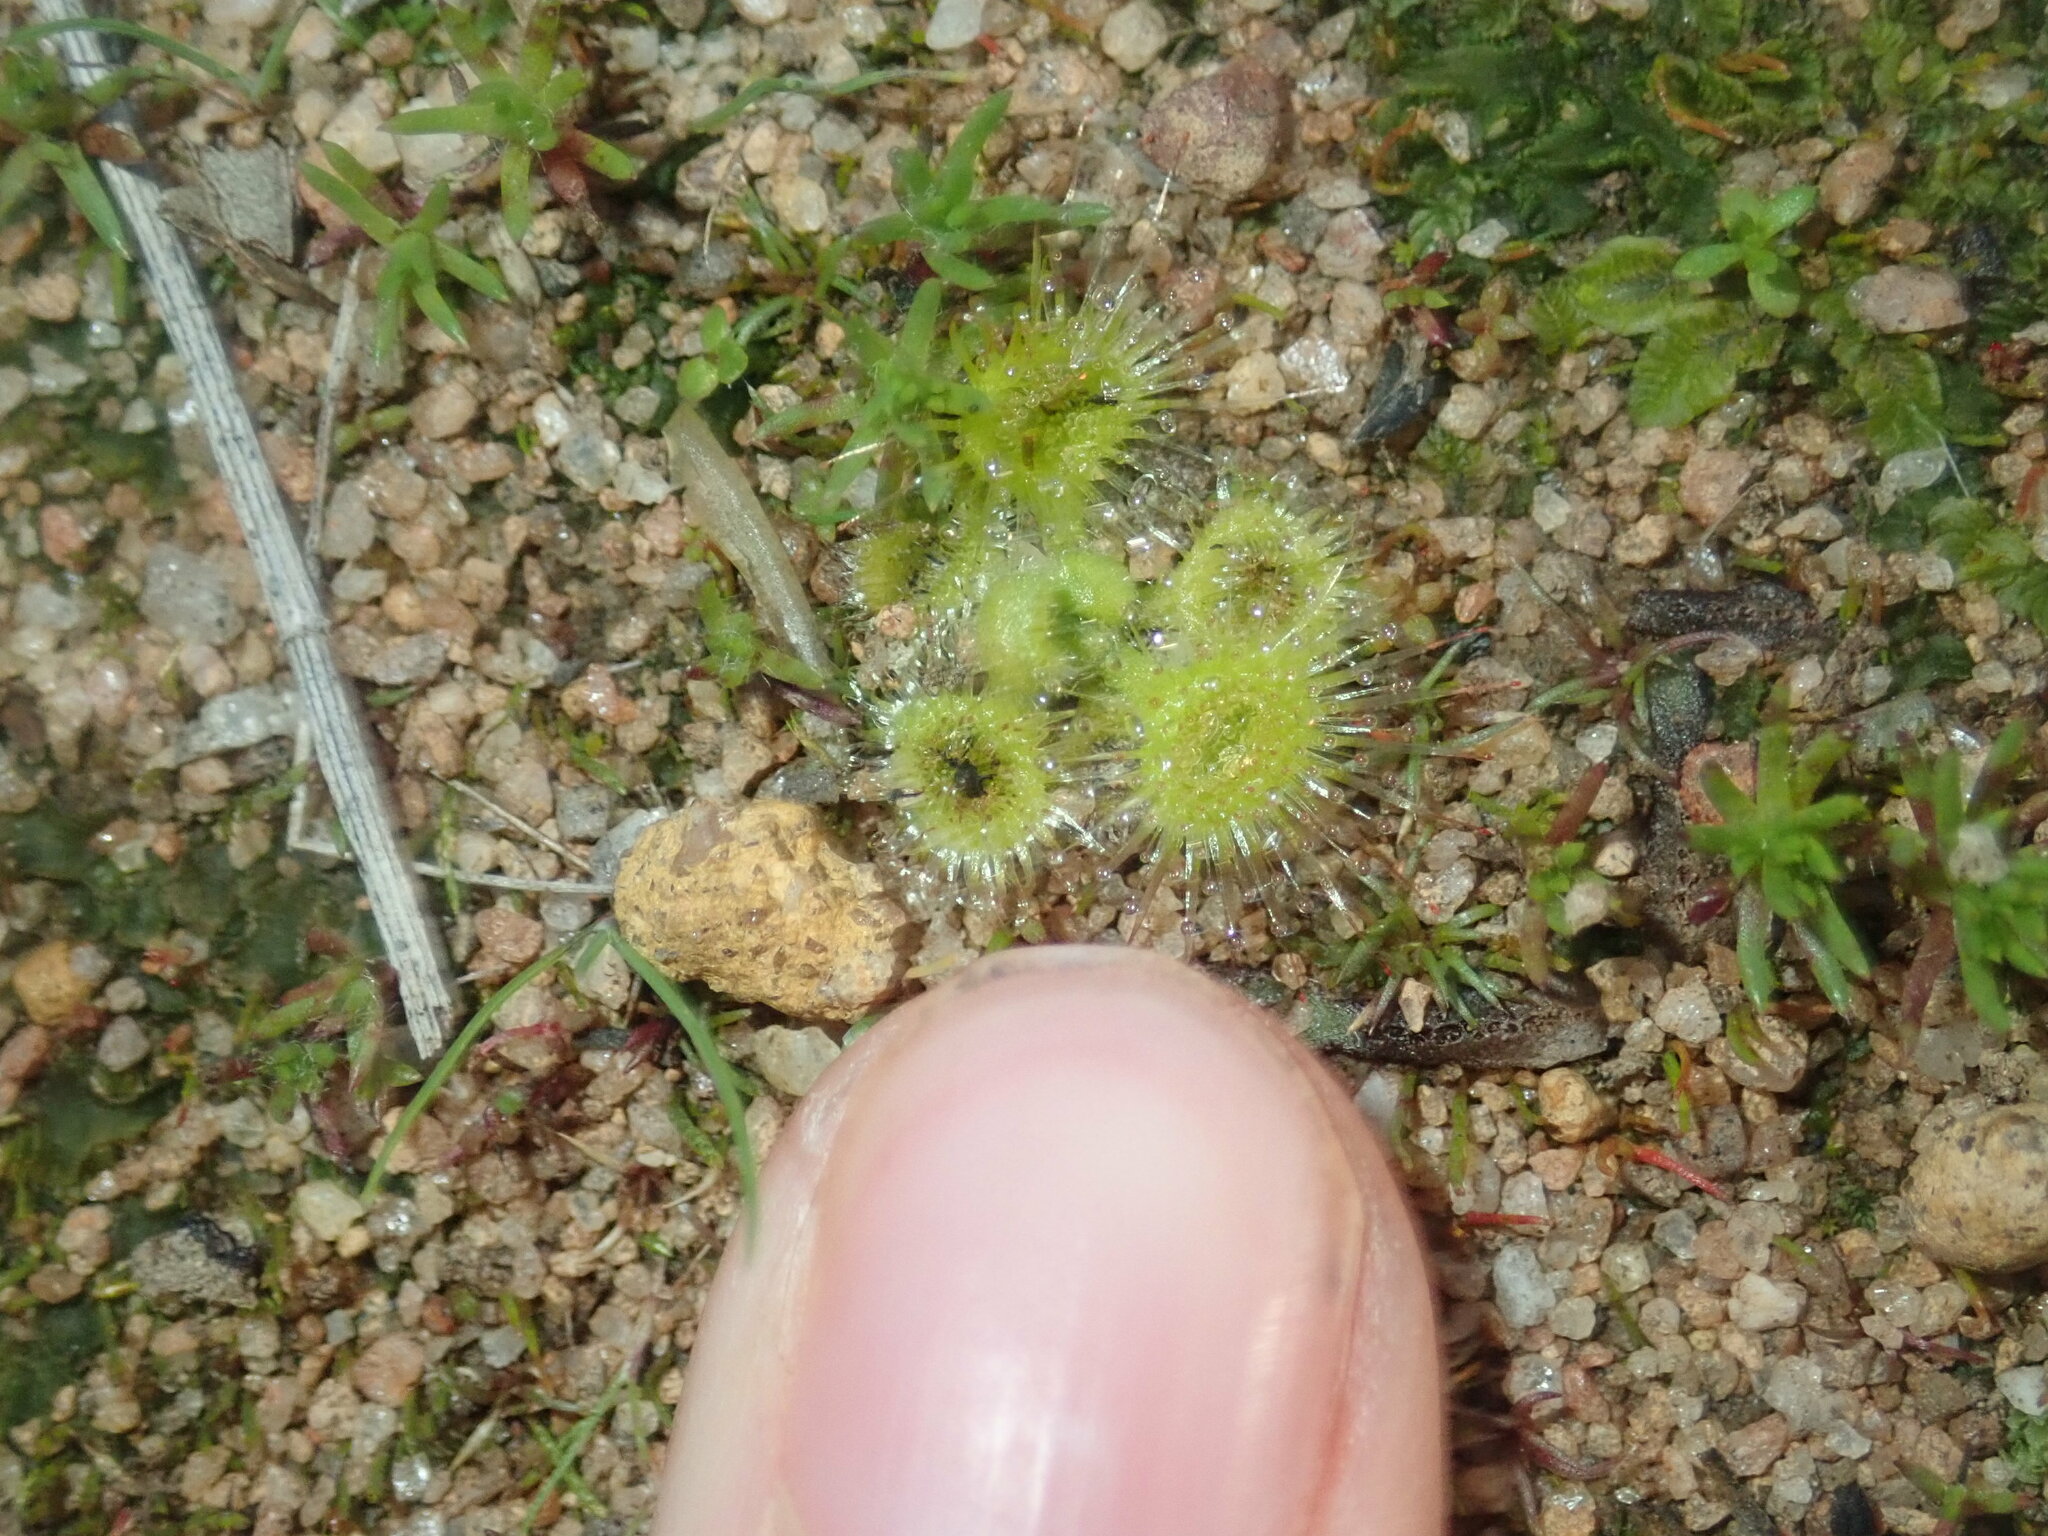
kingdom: Plantae
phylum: Tracheophyta
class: Magnoliopsida
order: Caryophyllales
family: Droseraceae
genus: Drosera
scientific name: Drosera glanduligera
